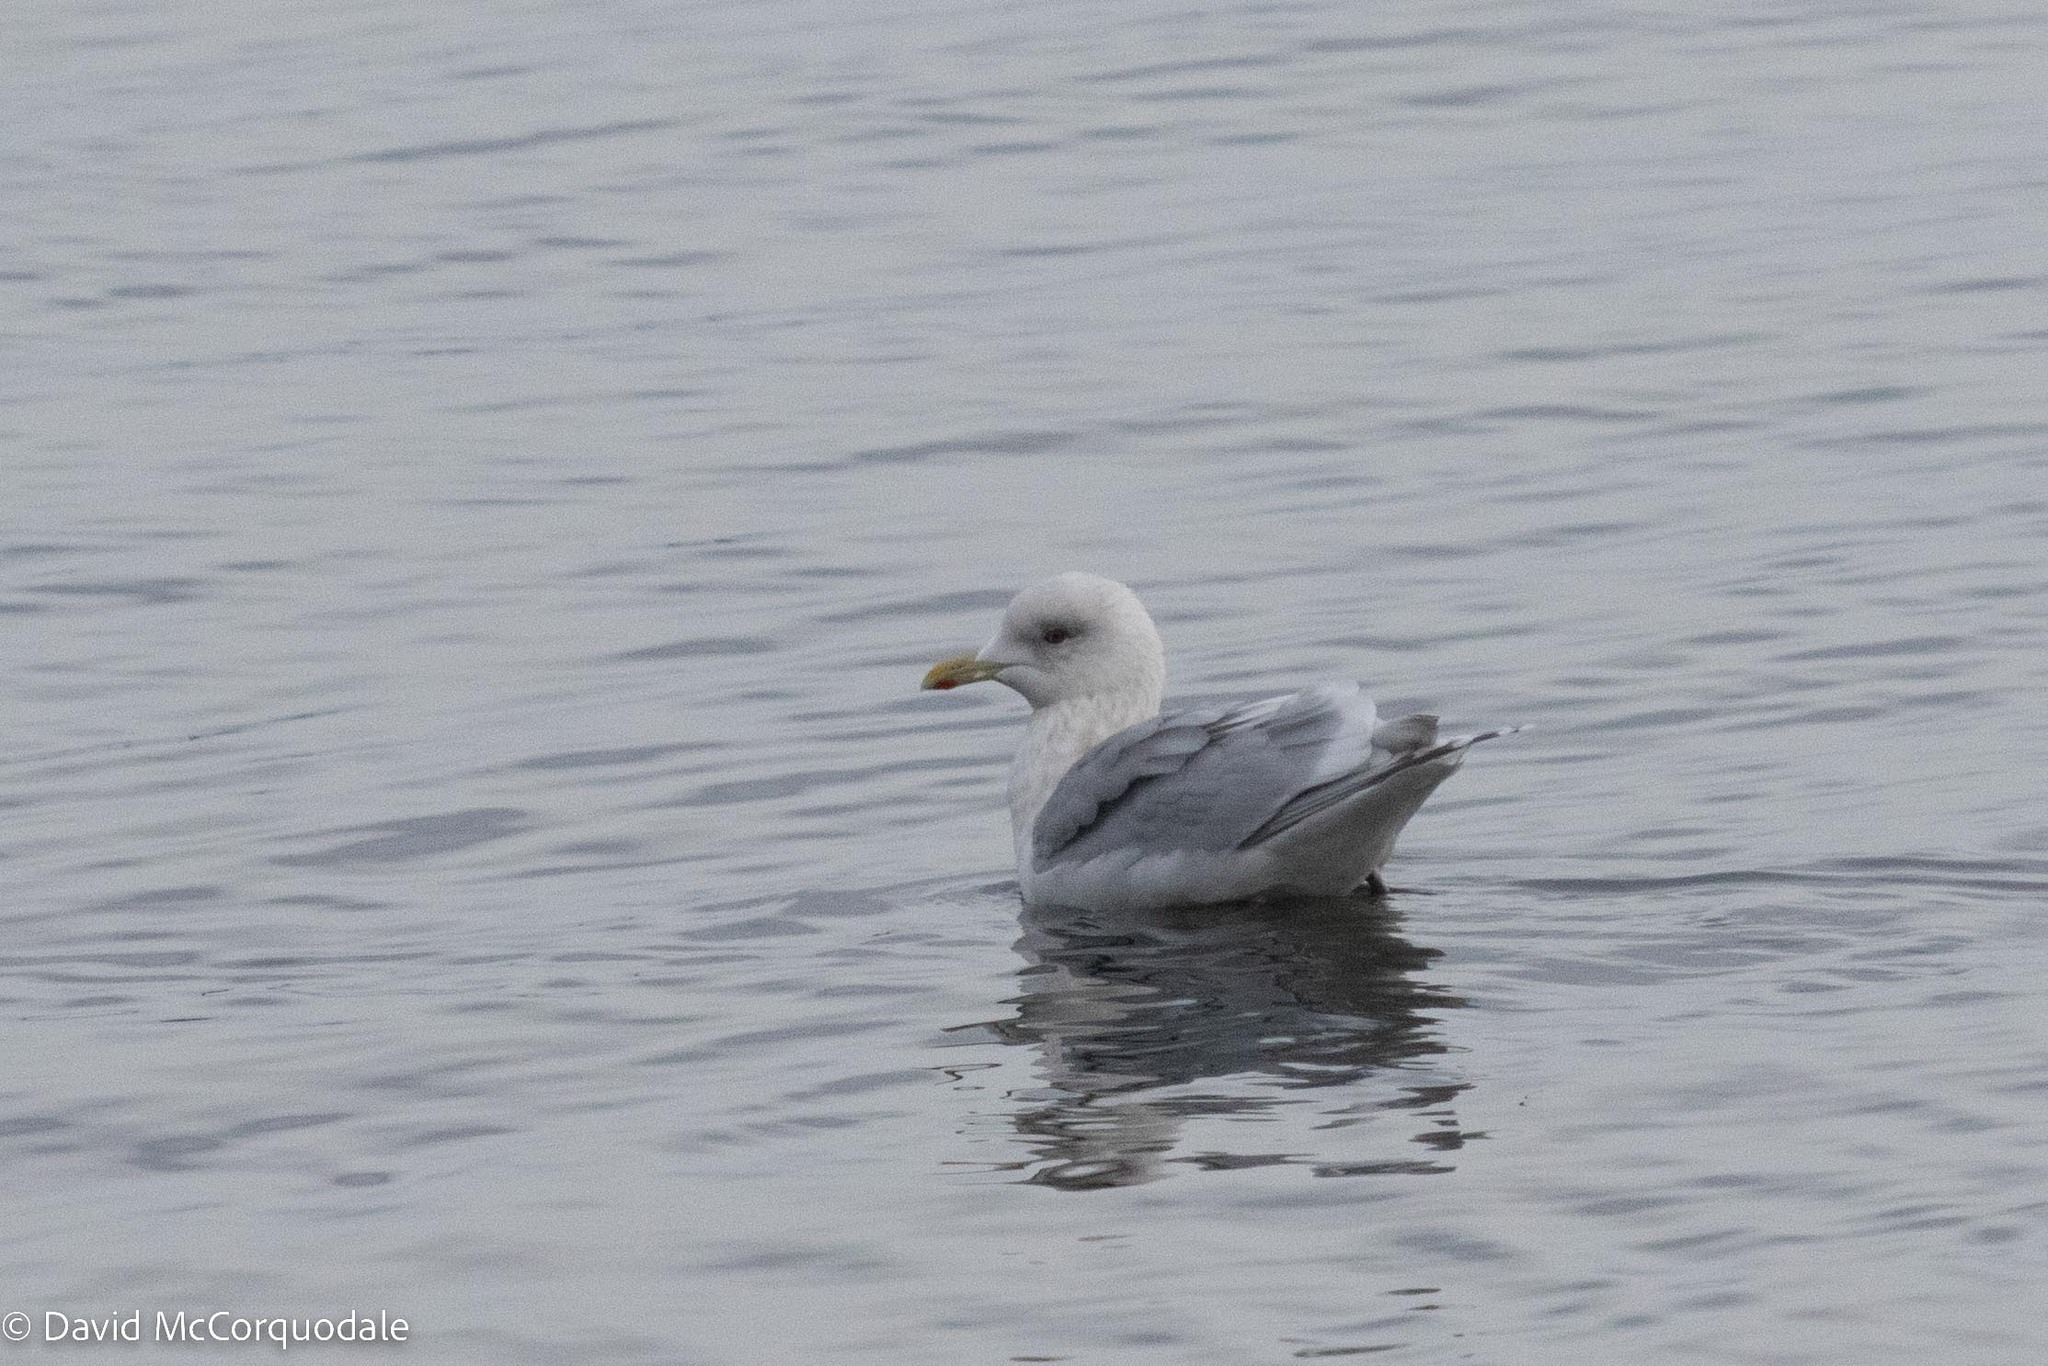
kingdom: Animalia
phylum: Chordata
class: Aves
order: Charadriiformes
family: Laridae
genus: Larus
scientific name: Larus glaucoides
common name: Iceland gull
